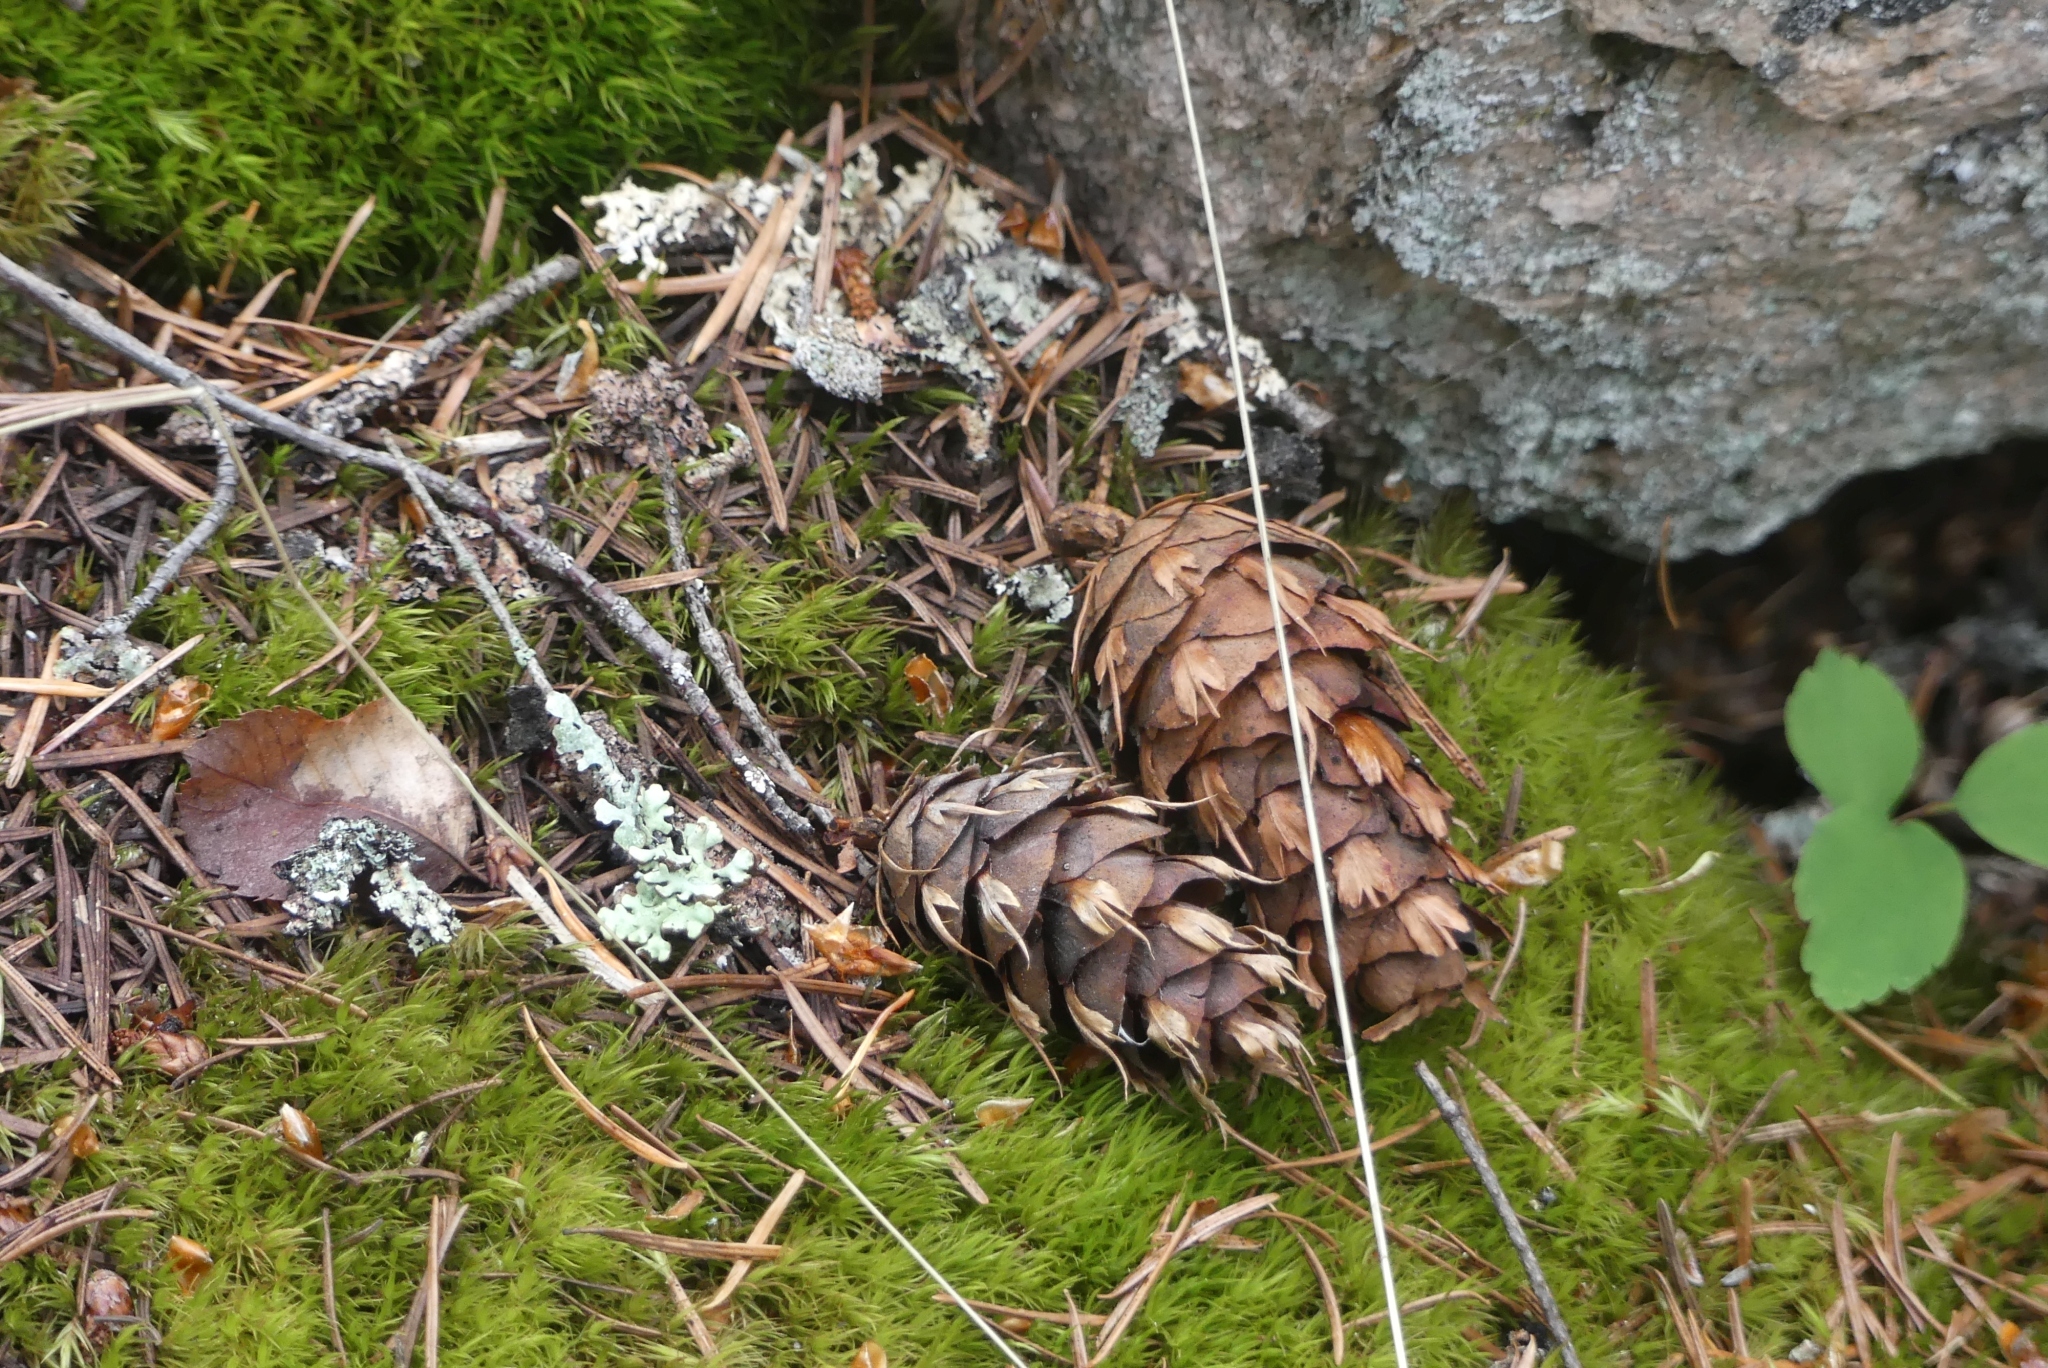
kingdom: Plantae
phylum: Tracheophyta
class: Pinopsida
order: Pinales
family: Pinaceae
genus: Pseudotsuga
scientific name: Pseudotsuga menziesii
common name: Douglas fir
